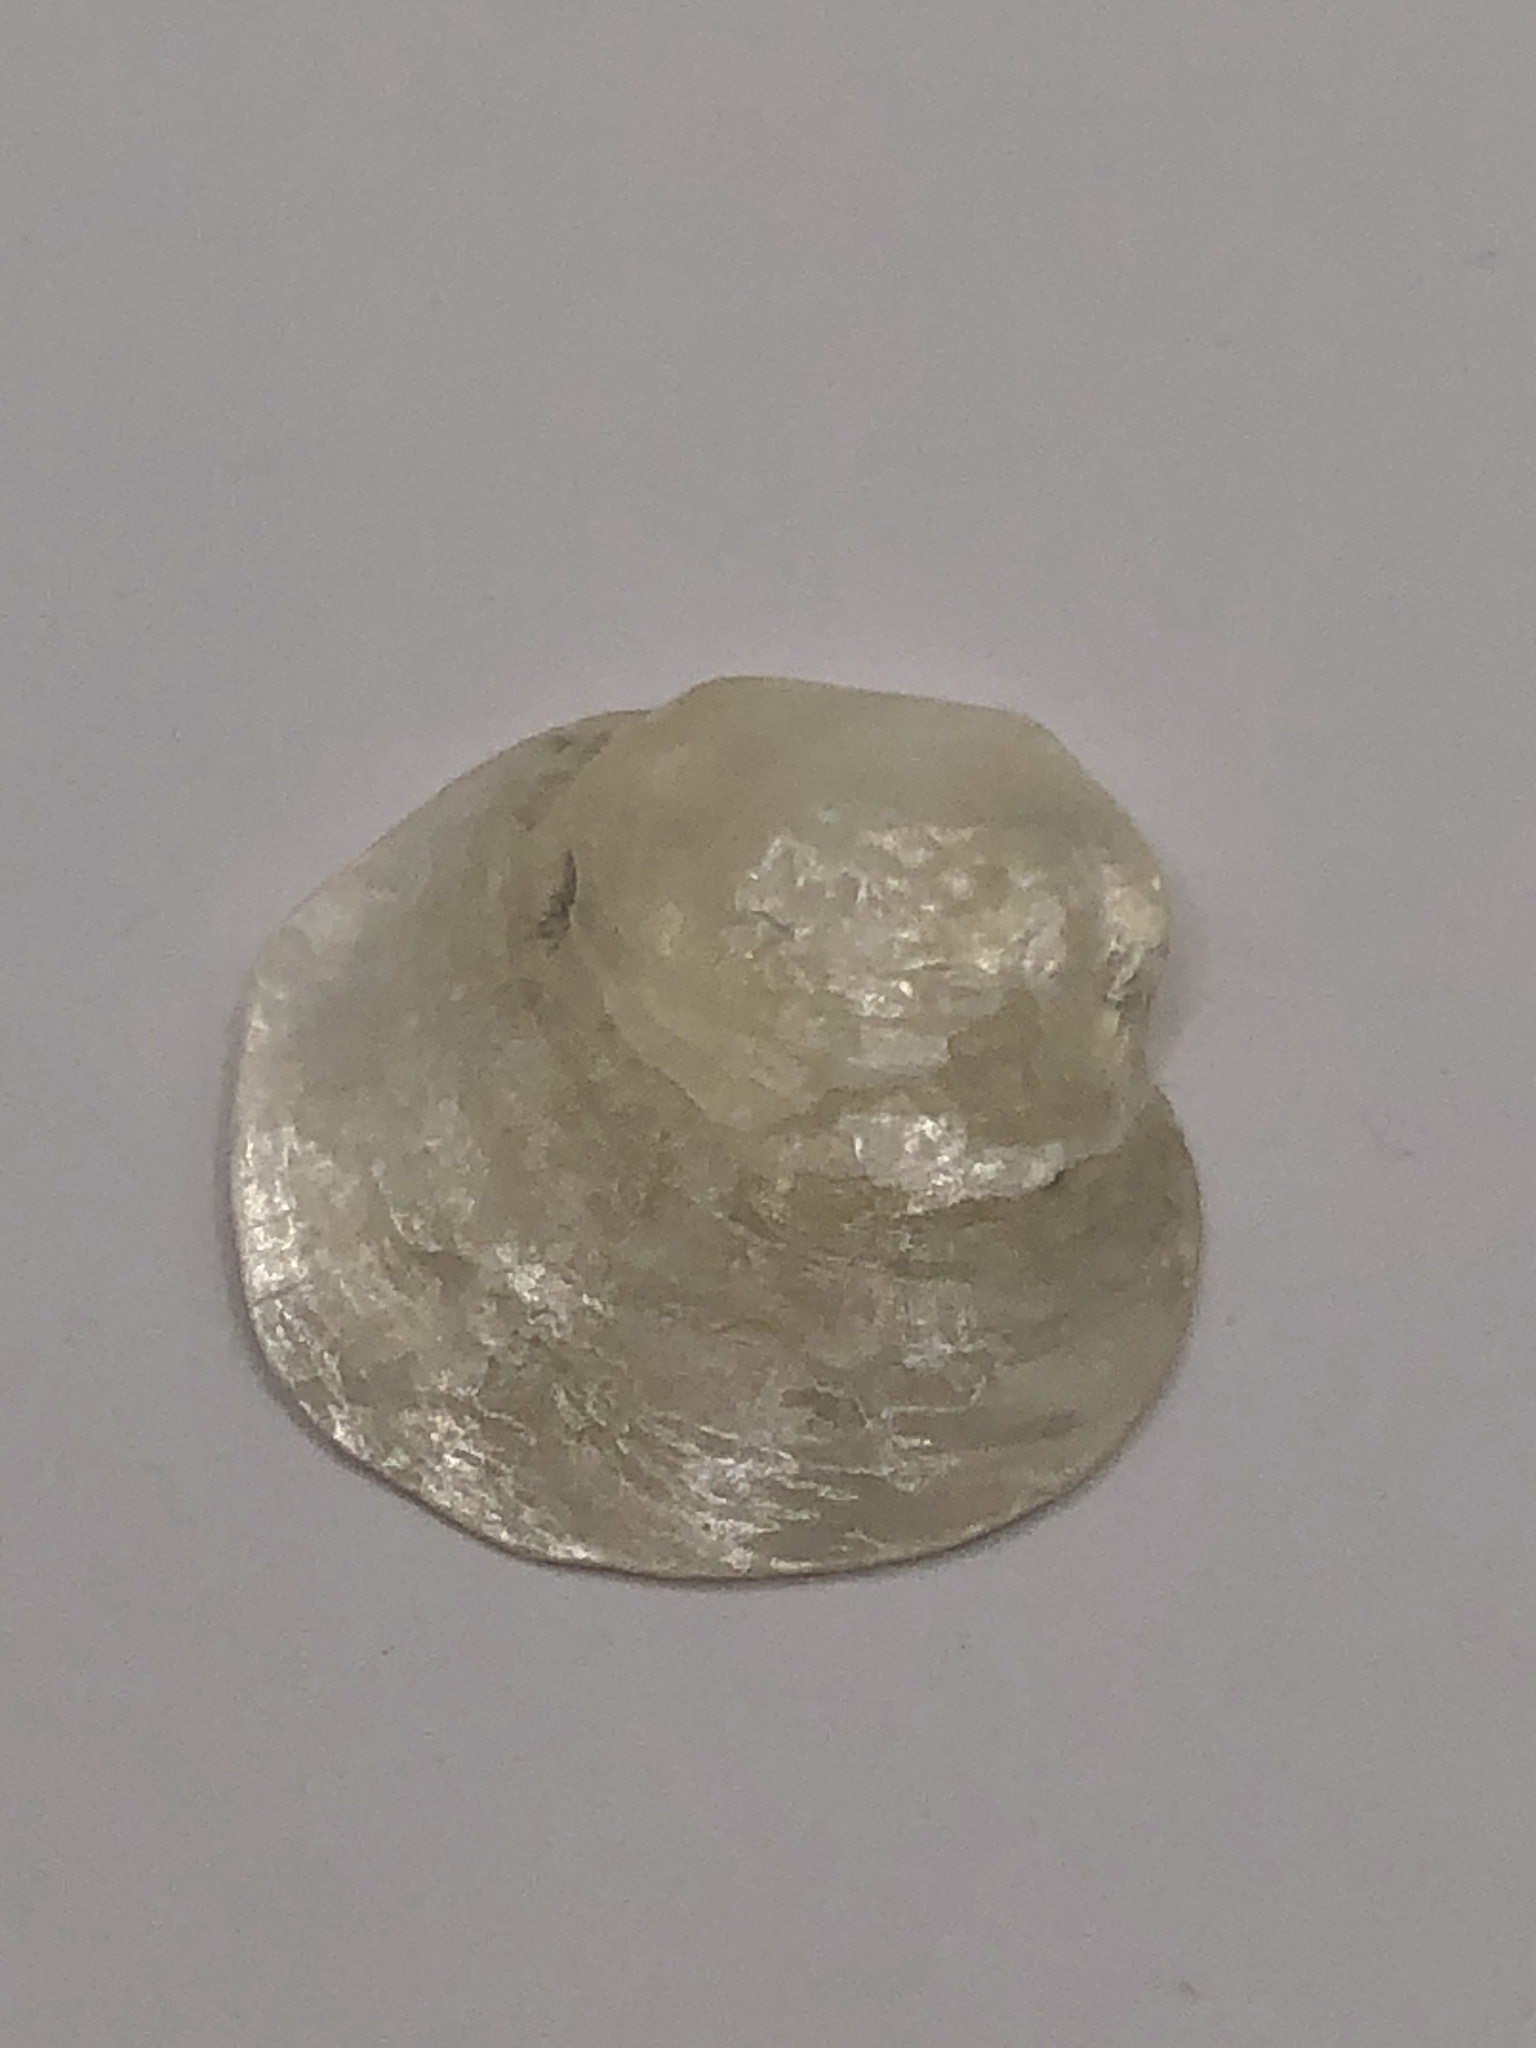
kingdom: Animalia
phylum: Mollusca
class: Bivalvia
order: Pectinida
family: Anomiidae
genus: Anomia
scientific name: Anomia simplex
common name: Common jingle shell
